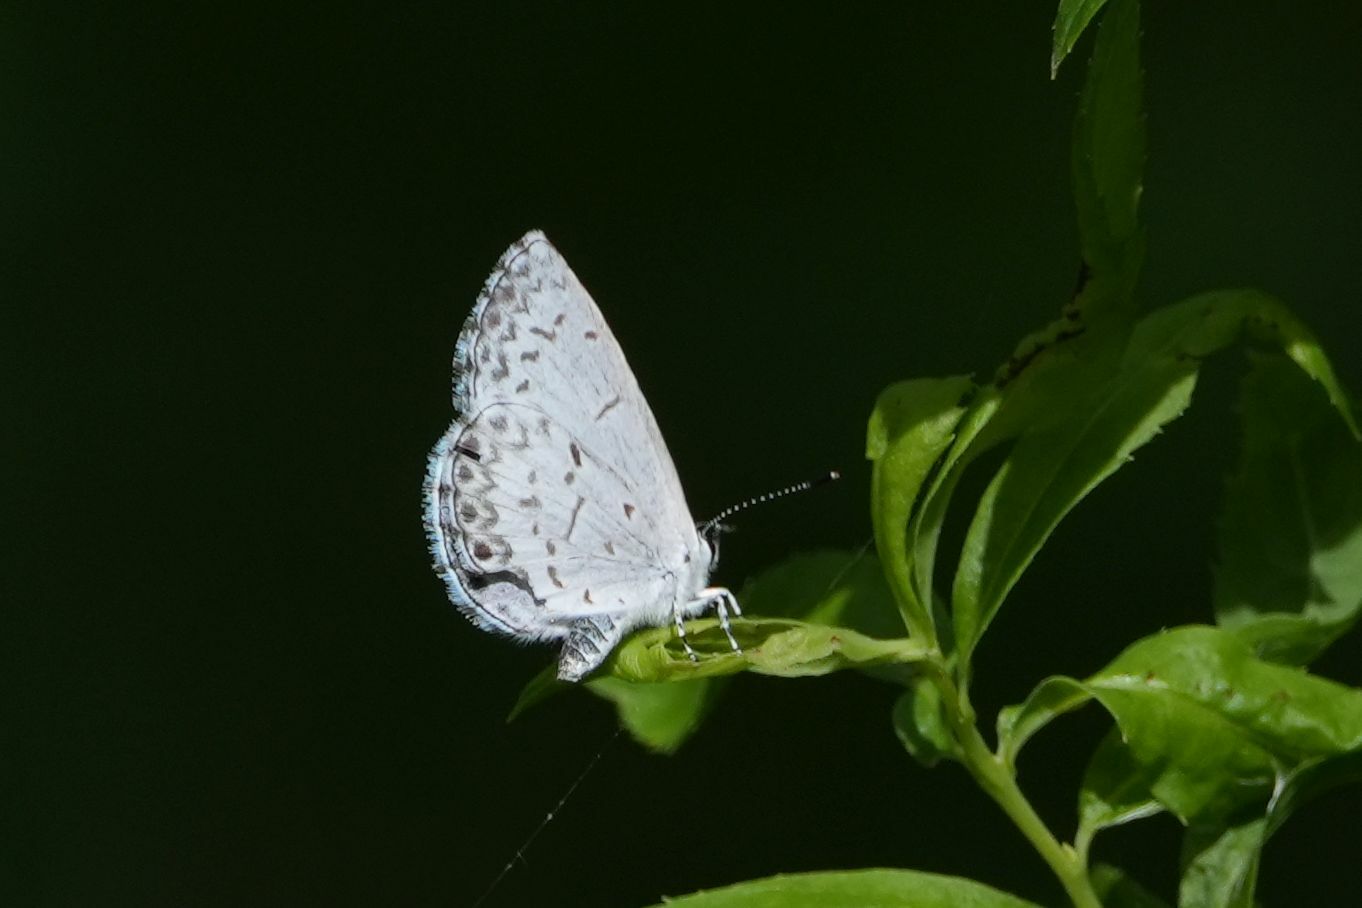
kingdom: Animalia
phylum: Arthropoda
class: Insecta
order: Lepidoptera
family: Lycaenidae
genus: Celastrina
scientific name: Celastrina lucia
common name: Lucia azure
